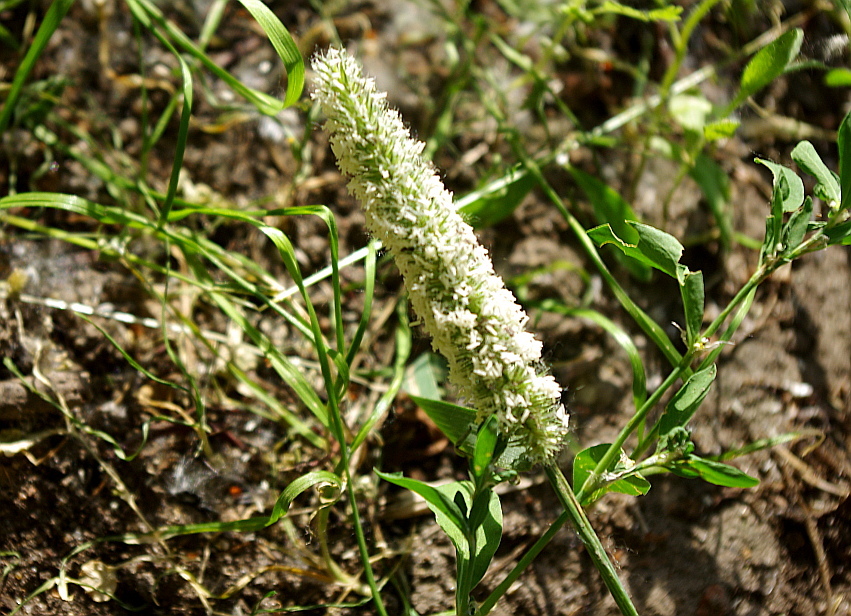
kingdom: Plantae
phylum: Tracheophyta
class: Liliopsida
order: Poales
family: Poaceae
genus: Phleum
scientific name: Phleum pratense
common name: Timothy grass
